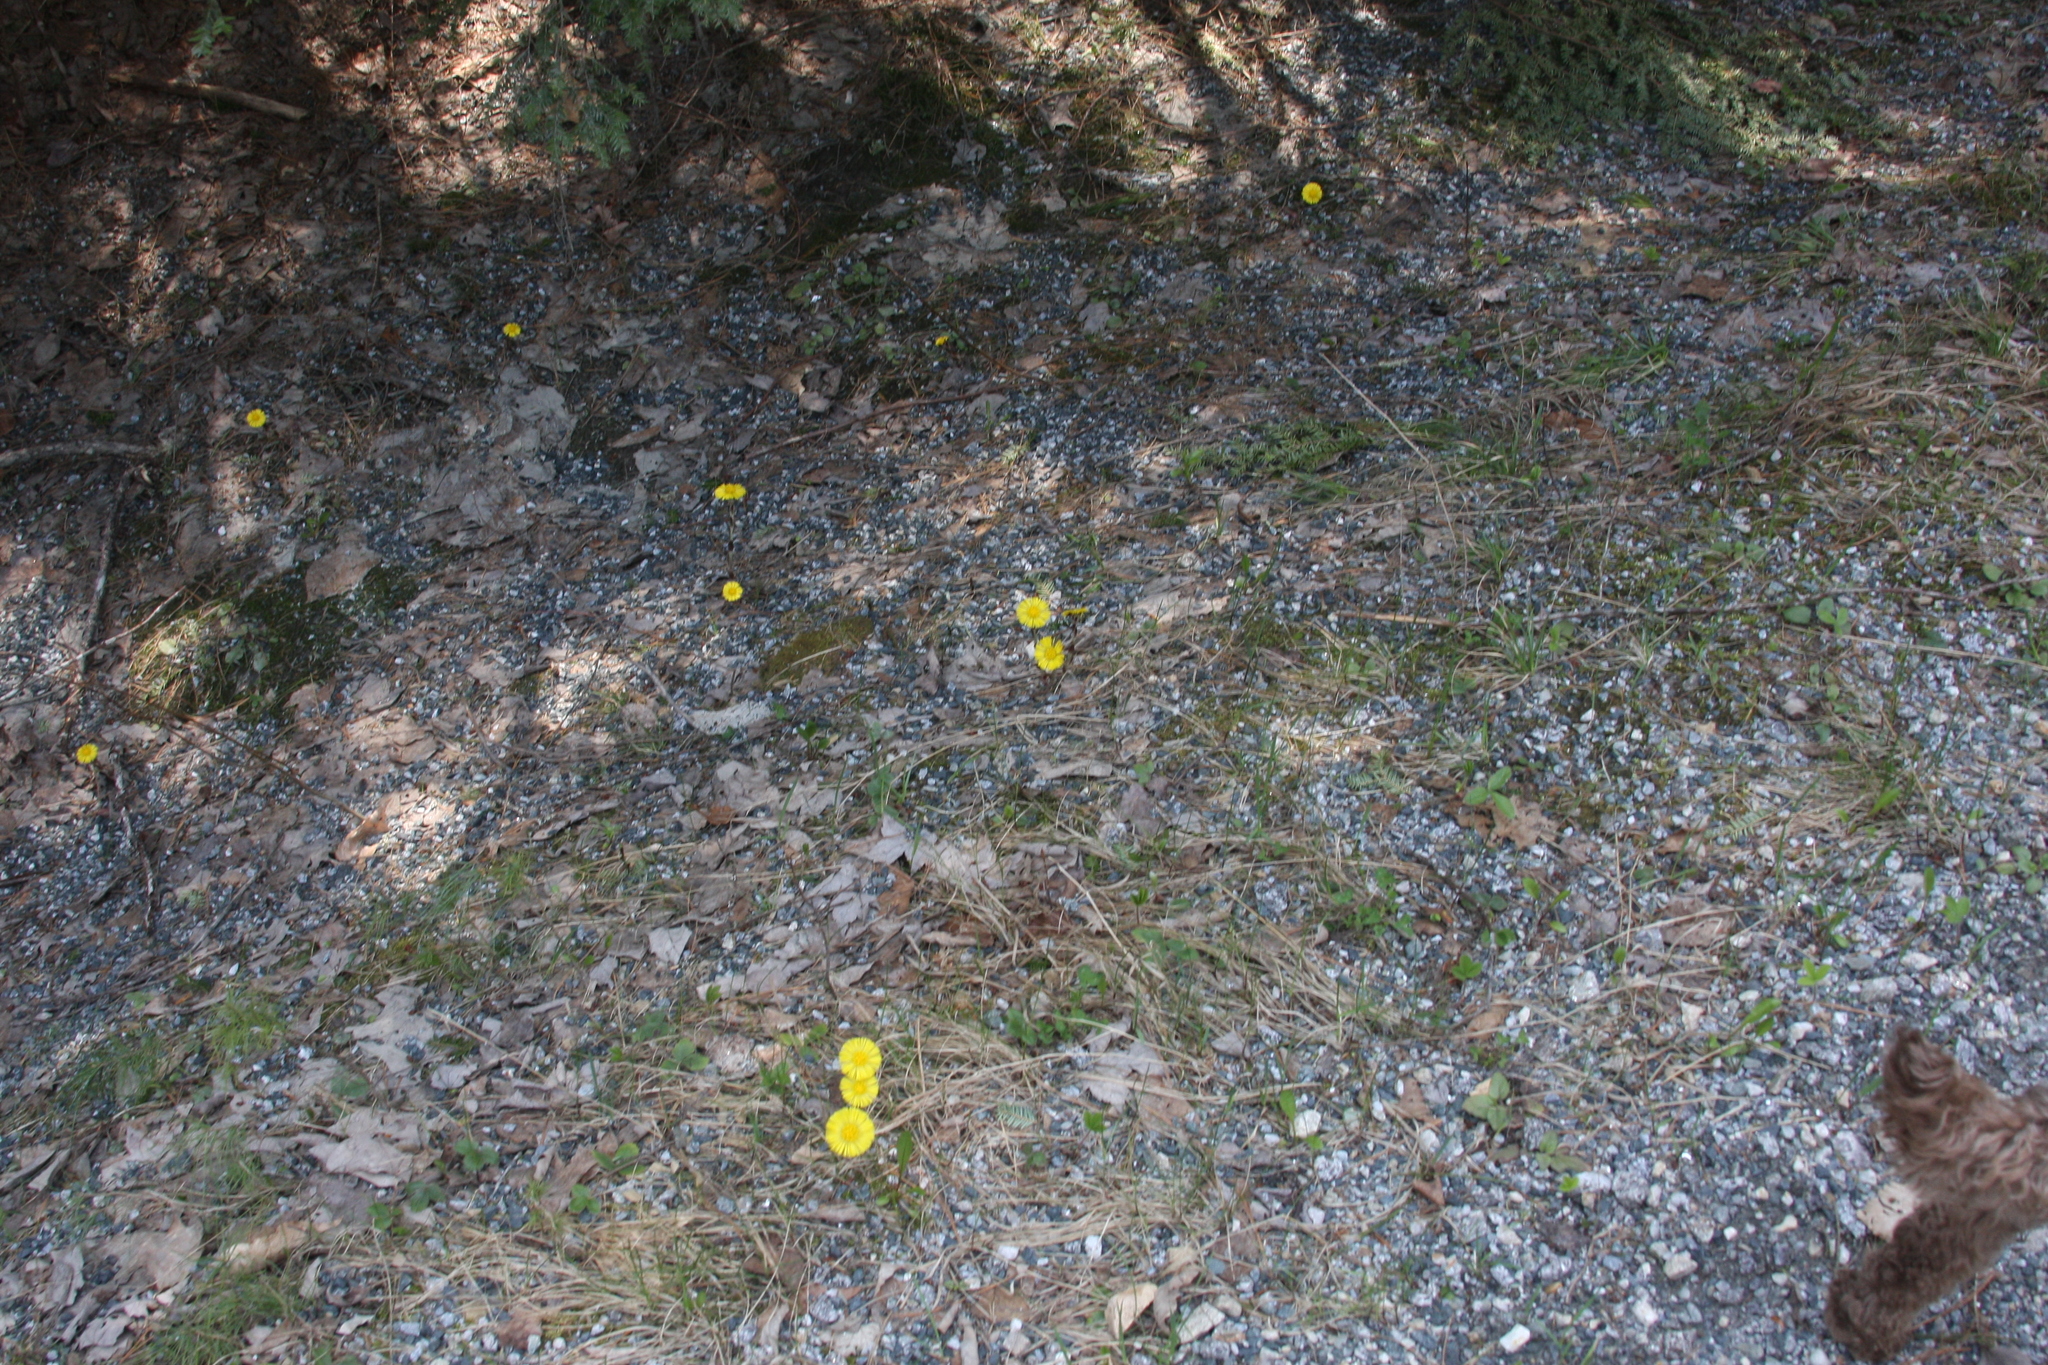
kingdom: Plantae
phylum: Tracheophyta
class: Magnoliopsida
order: Asterales
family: Asteraceae
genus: Tussilago
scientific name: Tussilago farfara
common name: Coltsfoot
